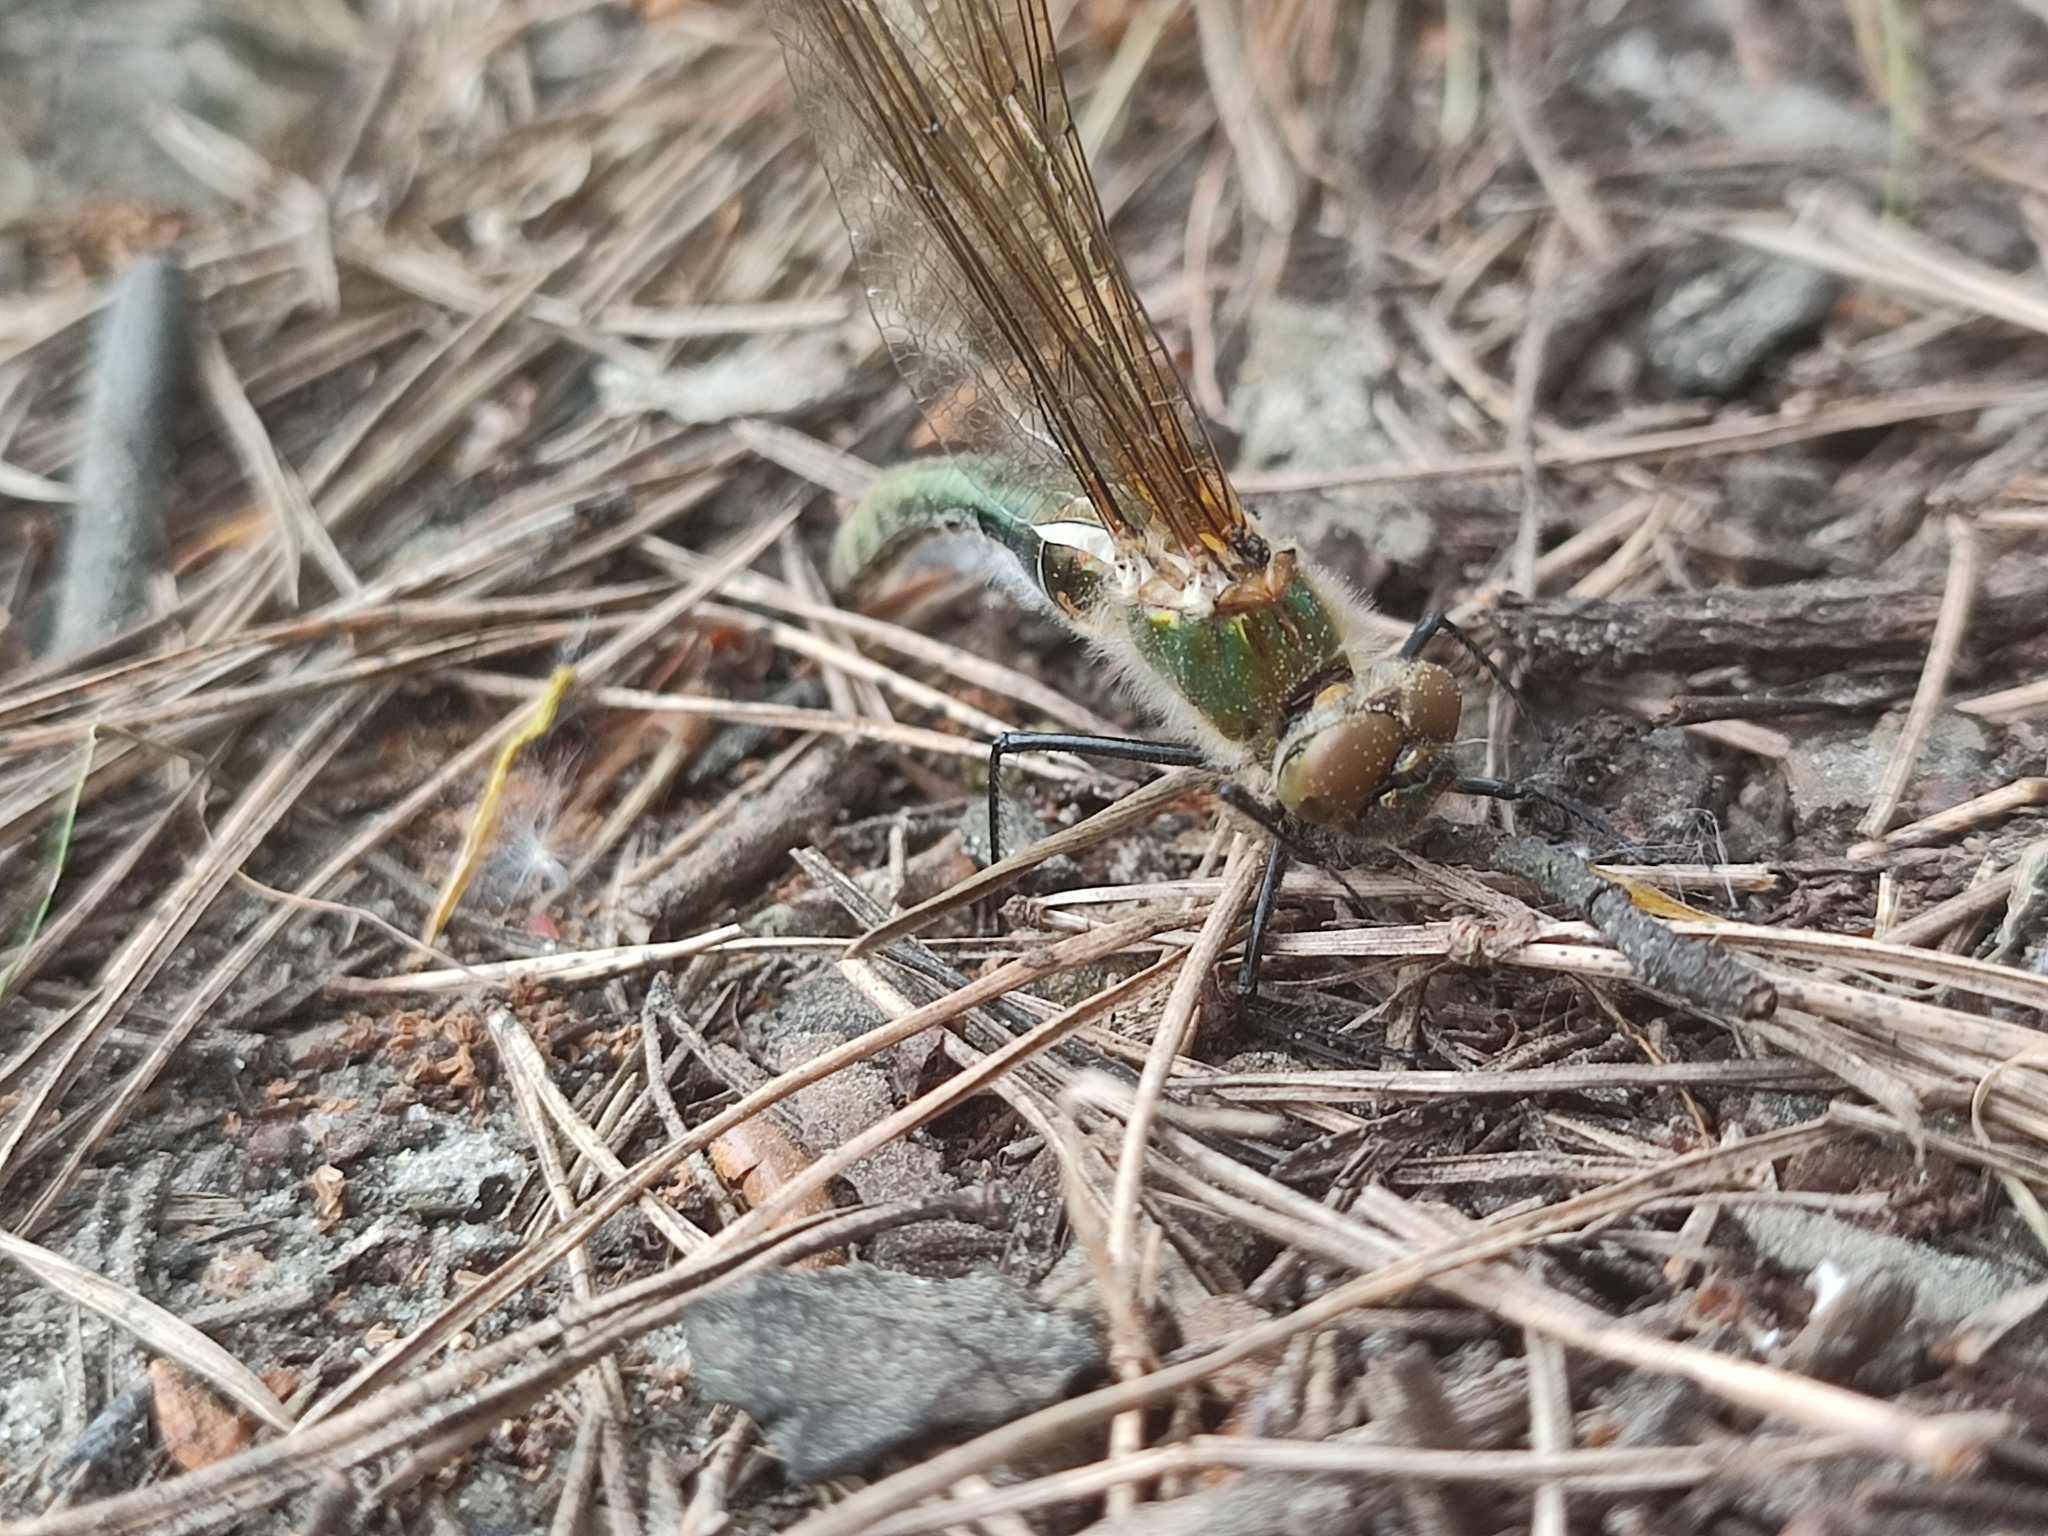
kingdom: Animalia
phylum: Arthropoda
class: Insecta
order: Odonata
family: Corduliidae
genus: Cordulia
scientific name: Cordulia aenea
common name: Downy emerald
